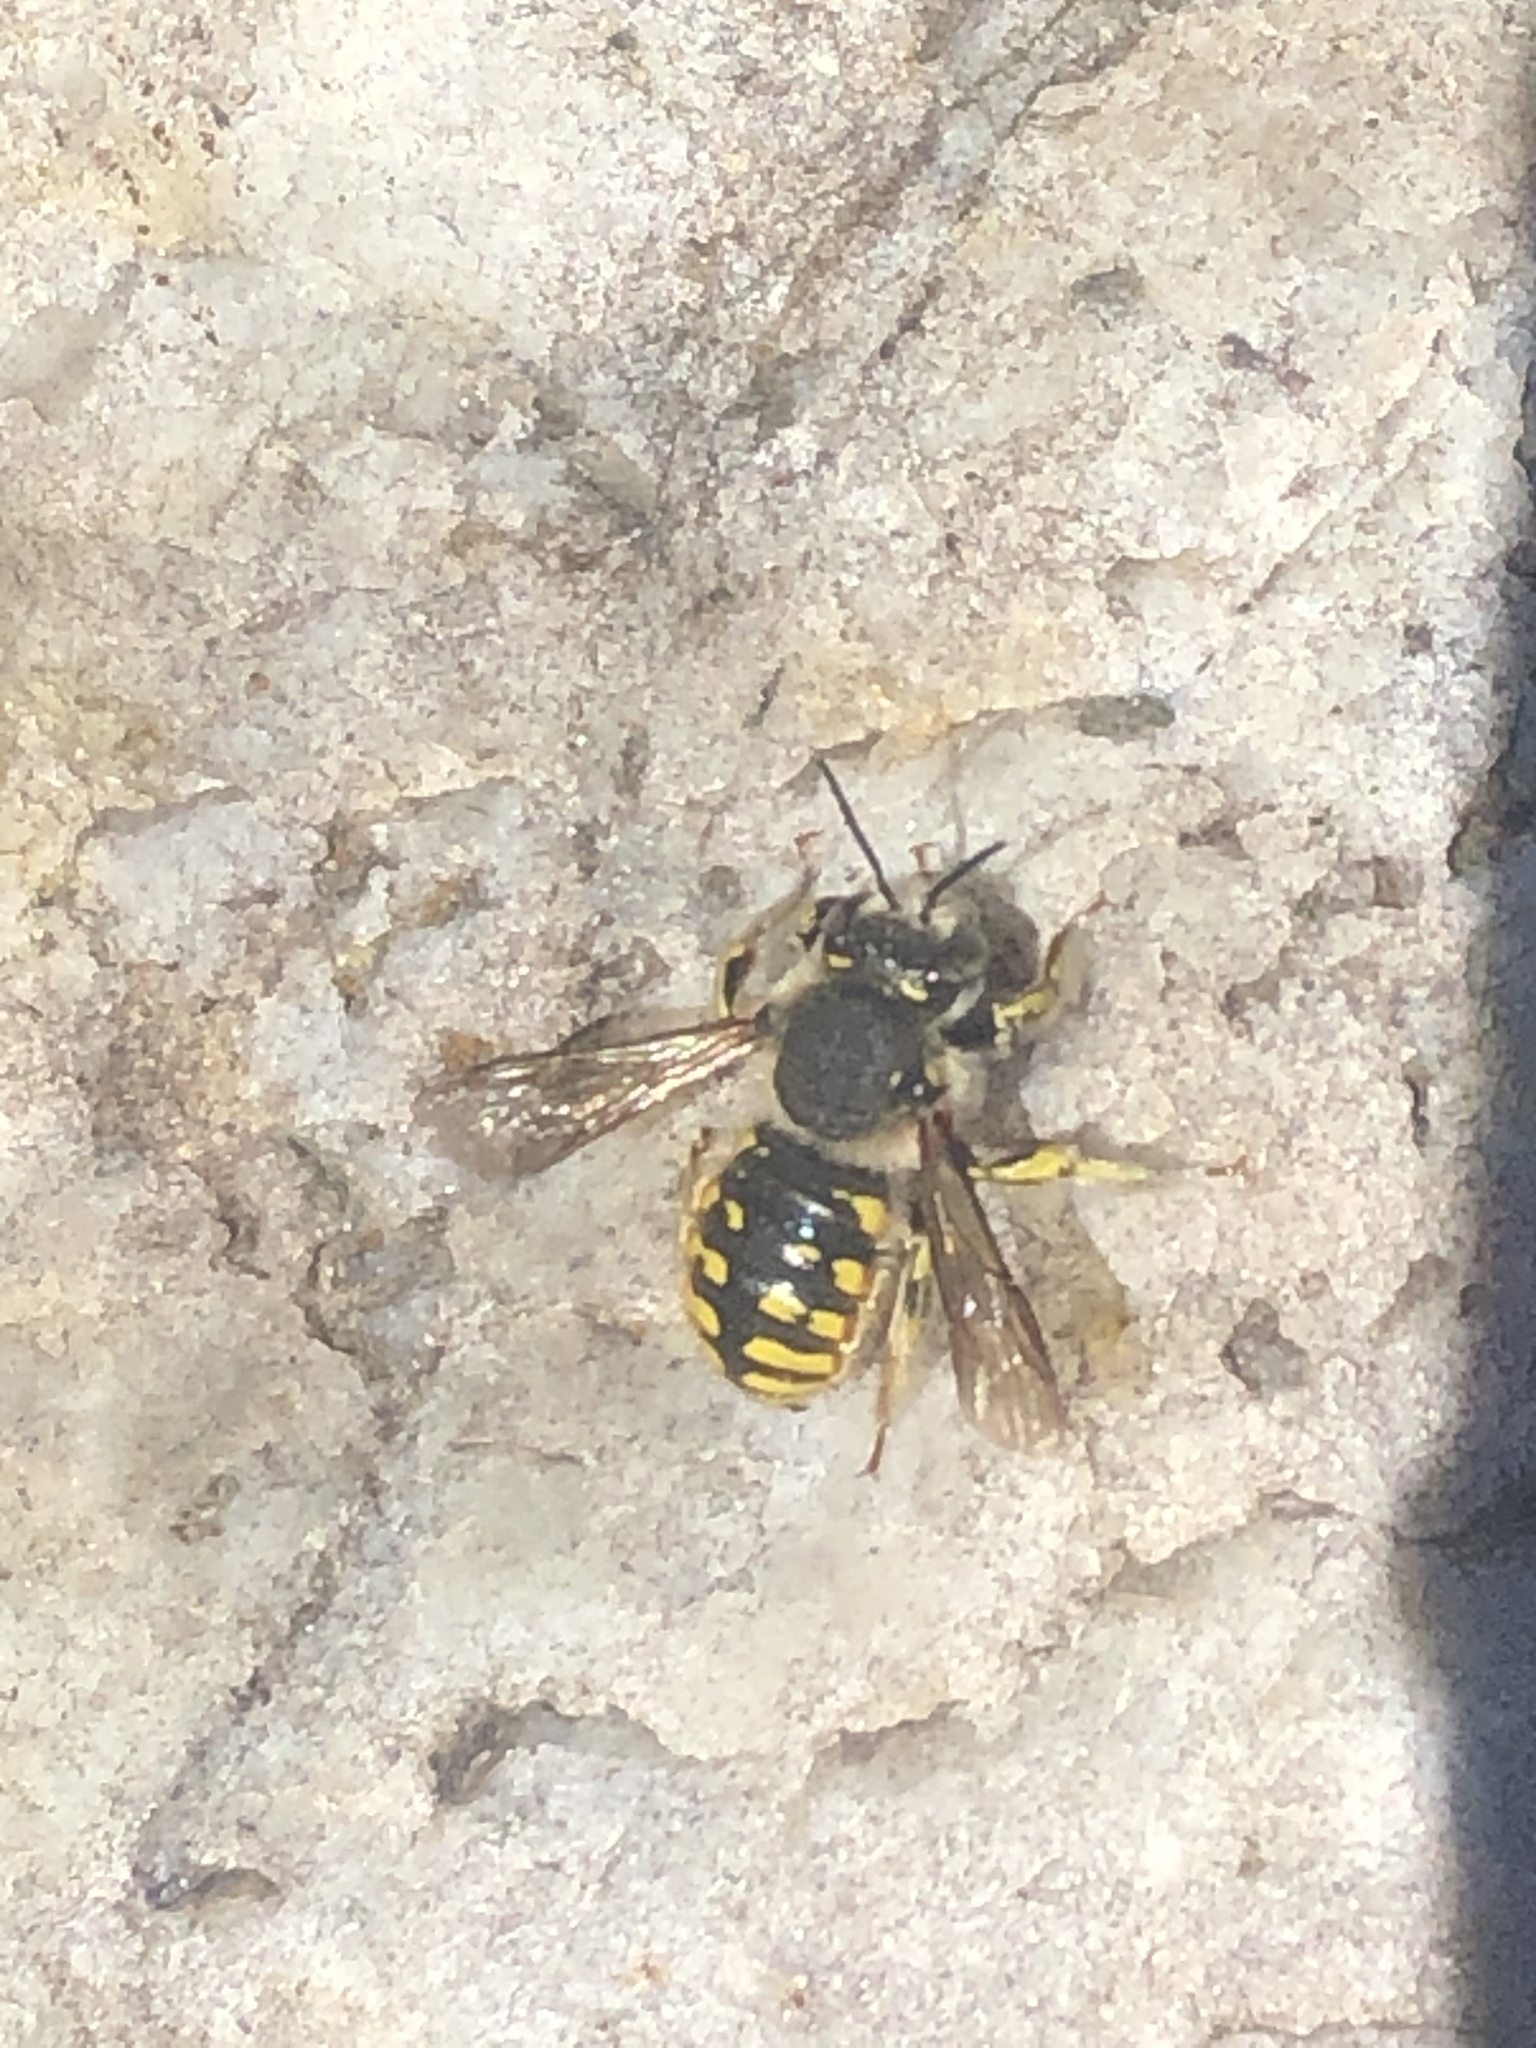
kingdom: Animalia
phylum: Arthropoda
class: Insecta
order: Hymenoptera
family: Megachilidae
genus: Anthidium
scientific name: Anthidium manicatum
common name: Wool carder bee
